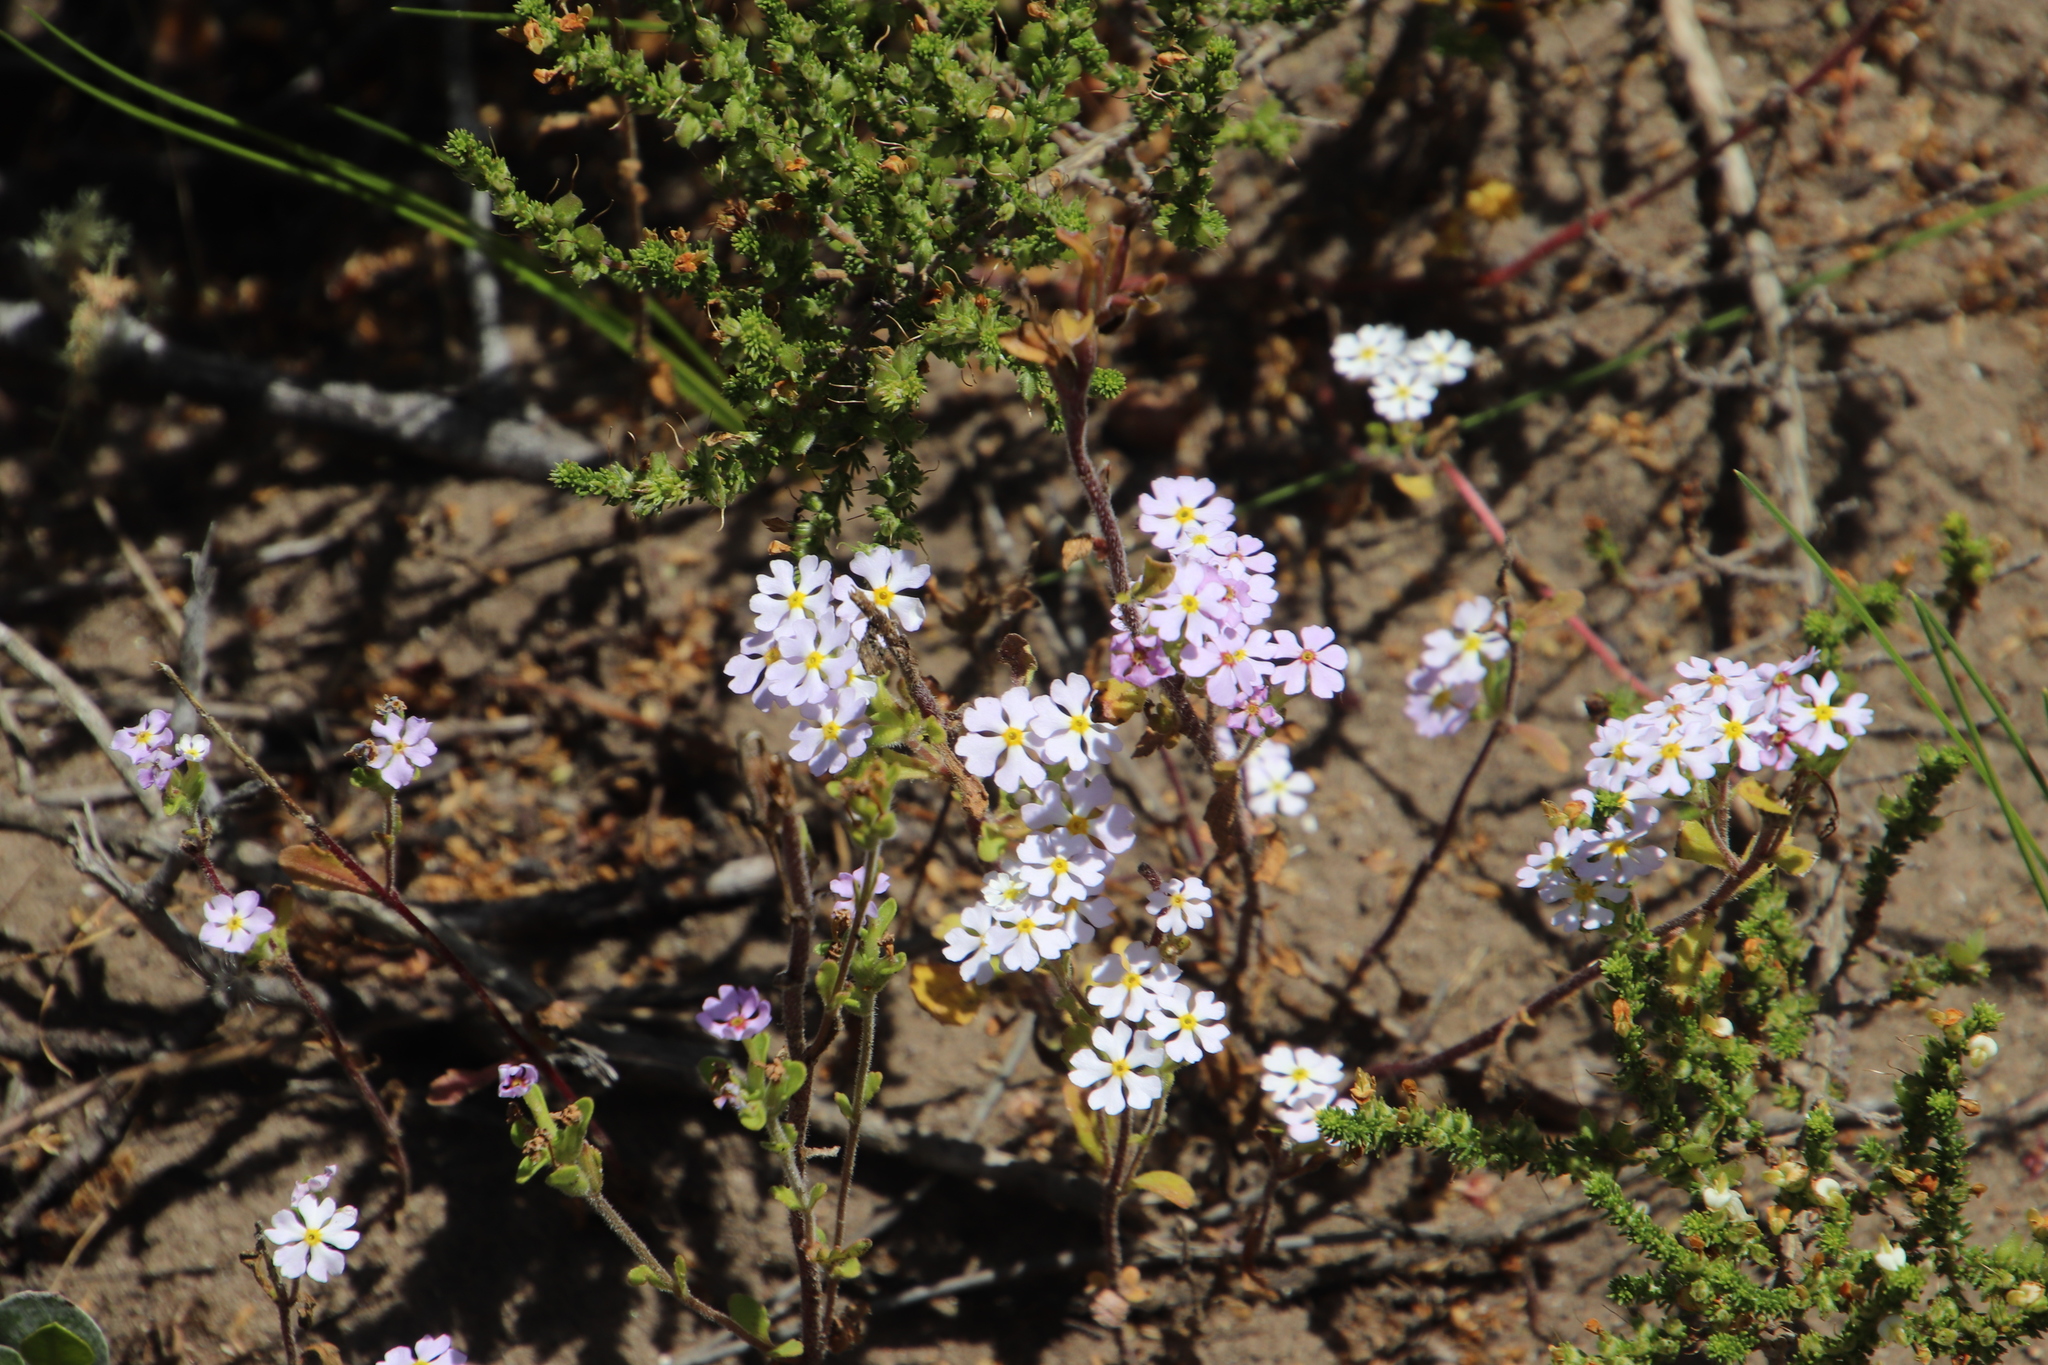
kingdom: Plantae
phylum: Tracheophyta
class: Magnoliopsida
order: Lamiales
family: Scrophulariaceae
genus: Zaluzianskya
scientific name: Zaluzianskya villosa
